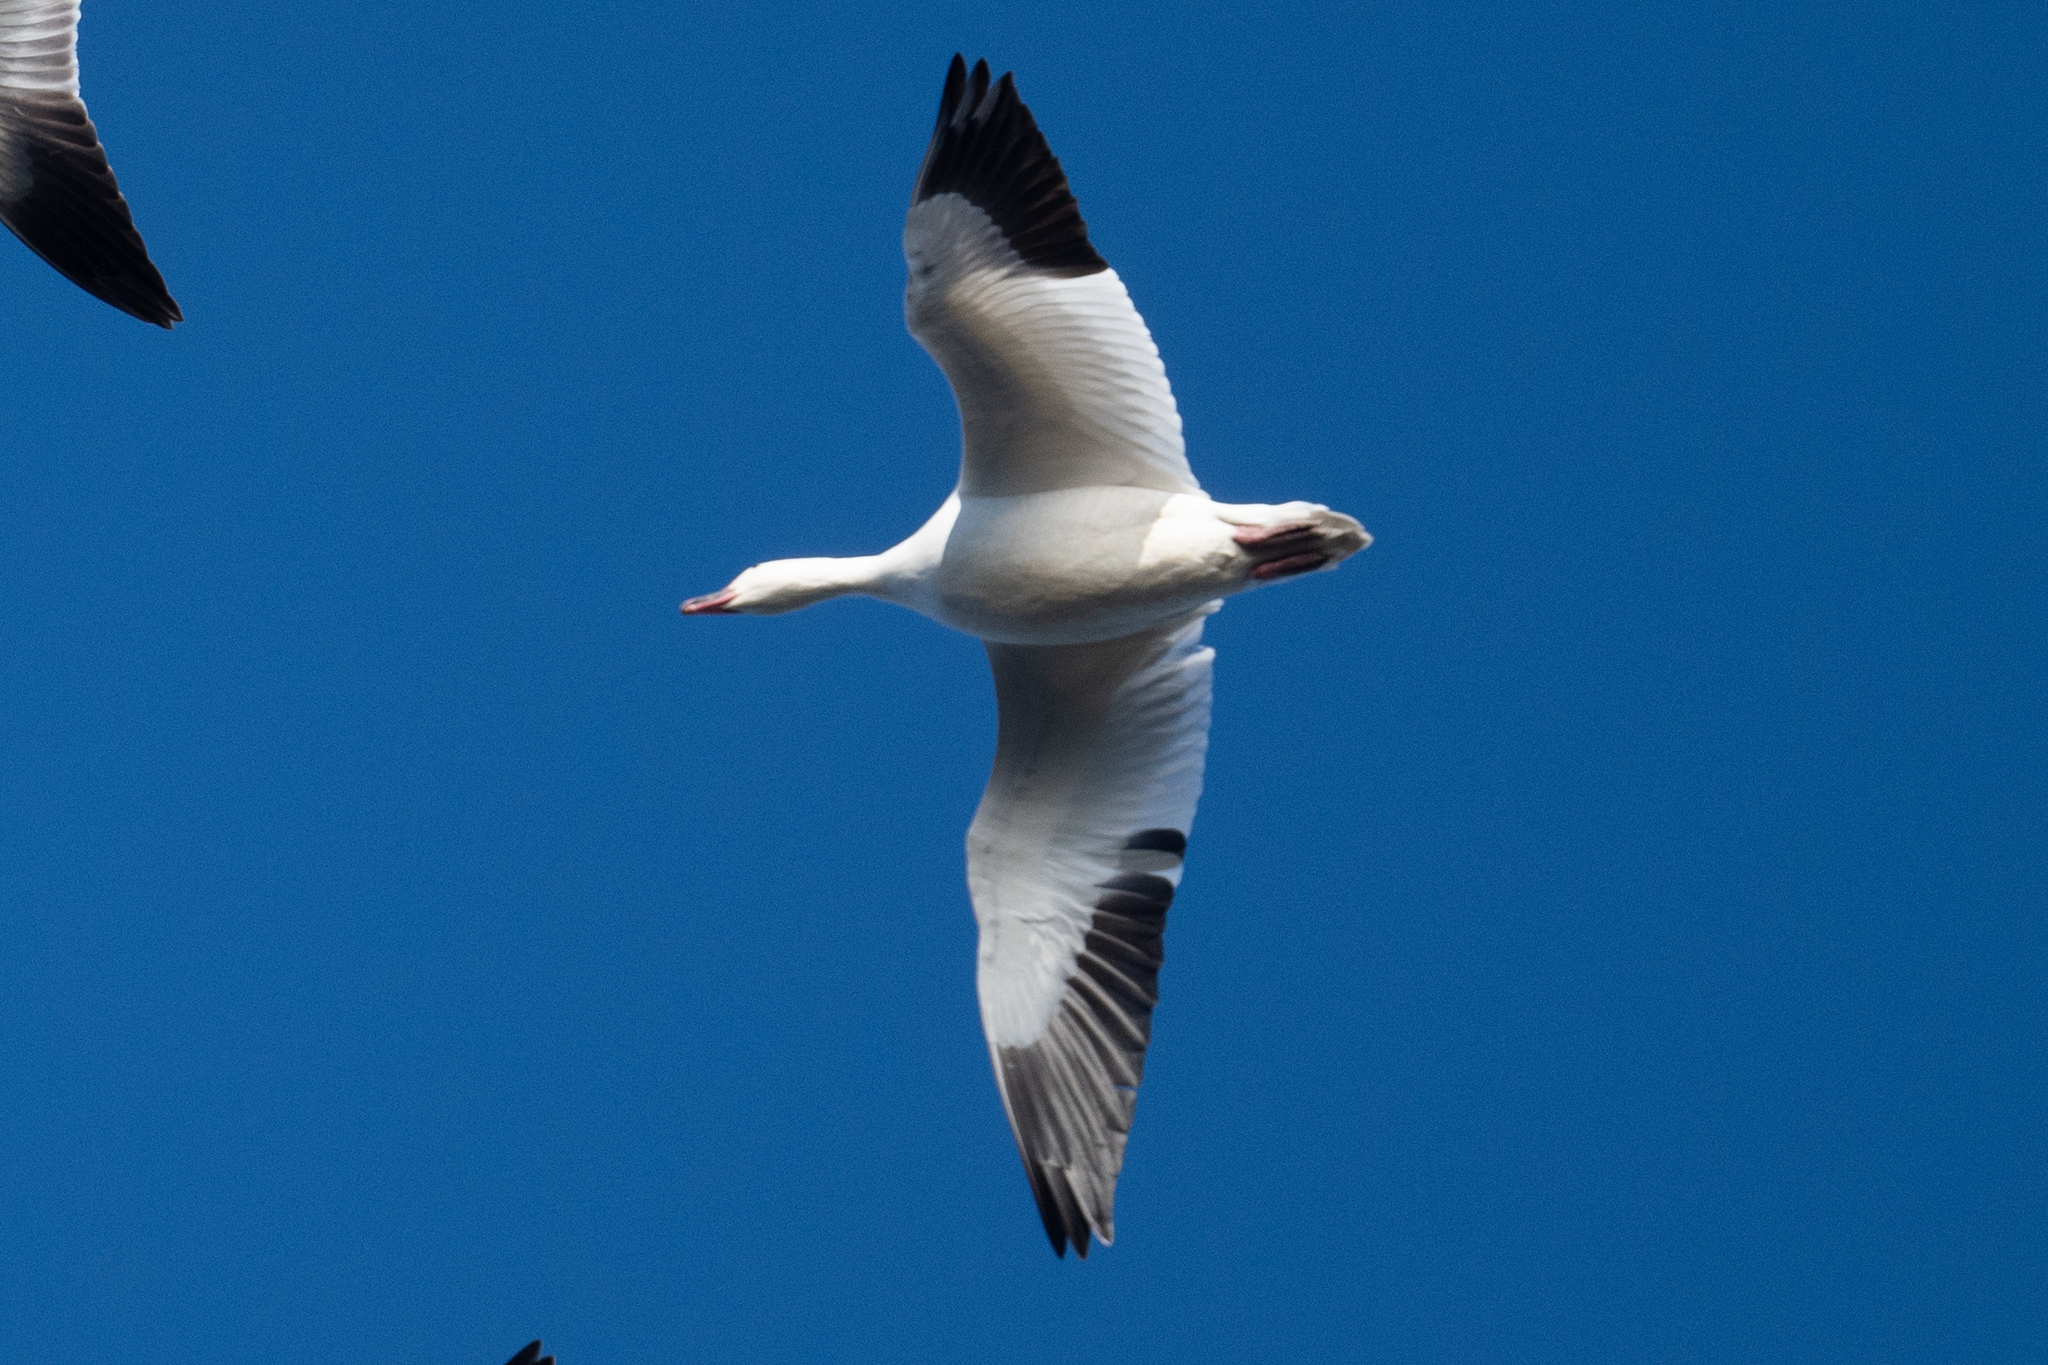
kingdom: Animalia
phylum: Chordata
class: Aves
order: Anseriformes
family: Anatidae
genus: Anser
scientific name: Anser caerulescens
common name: Snow goose
